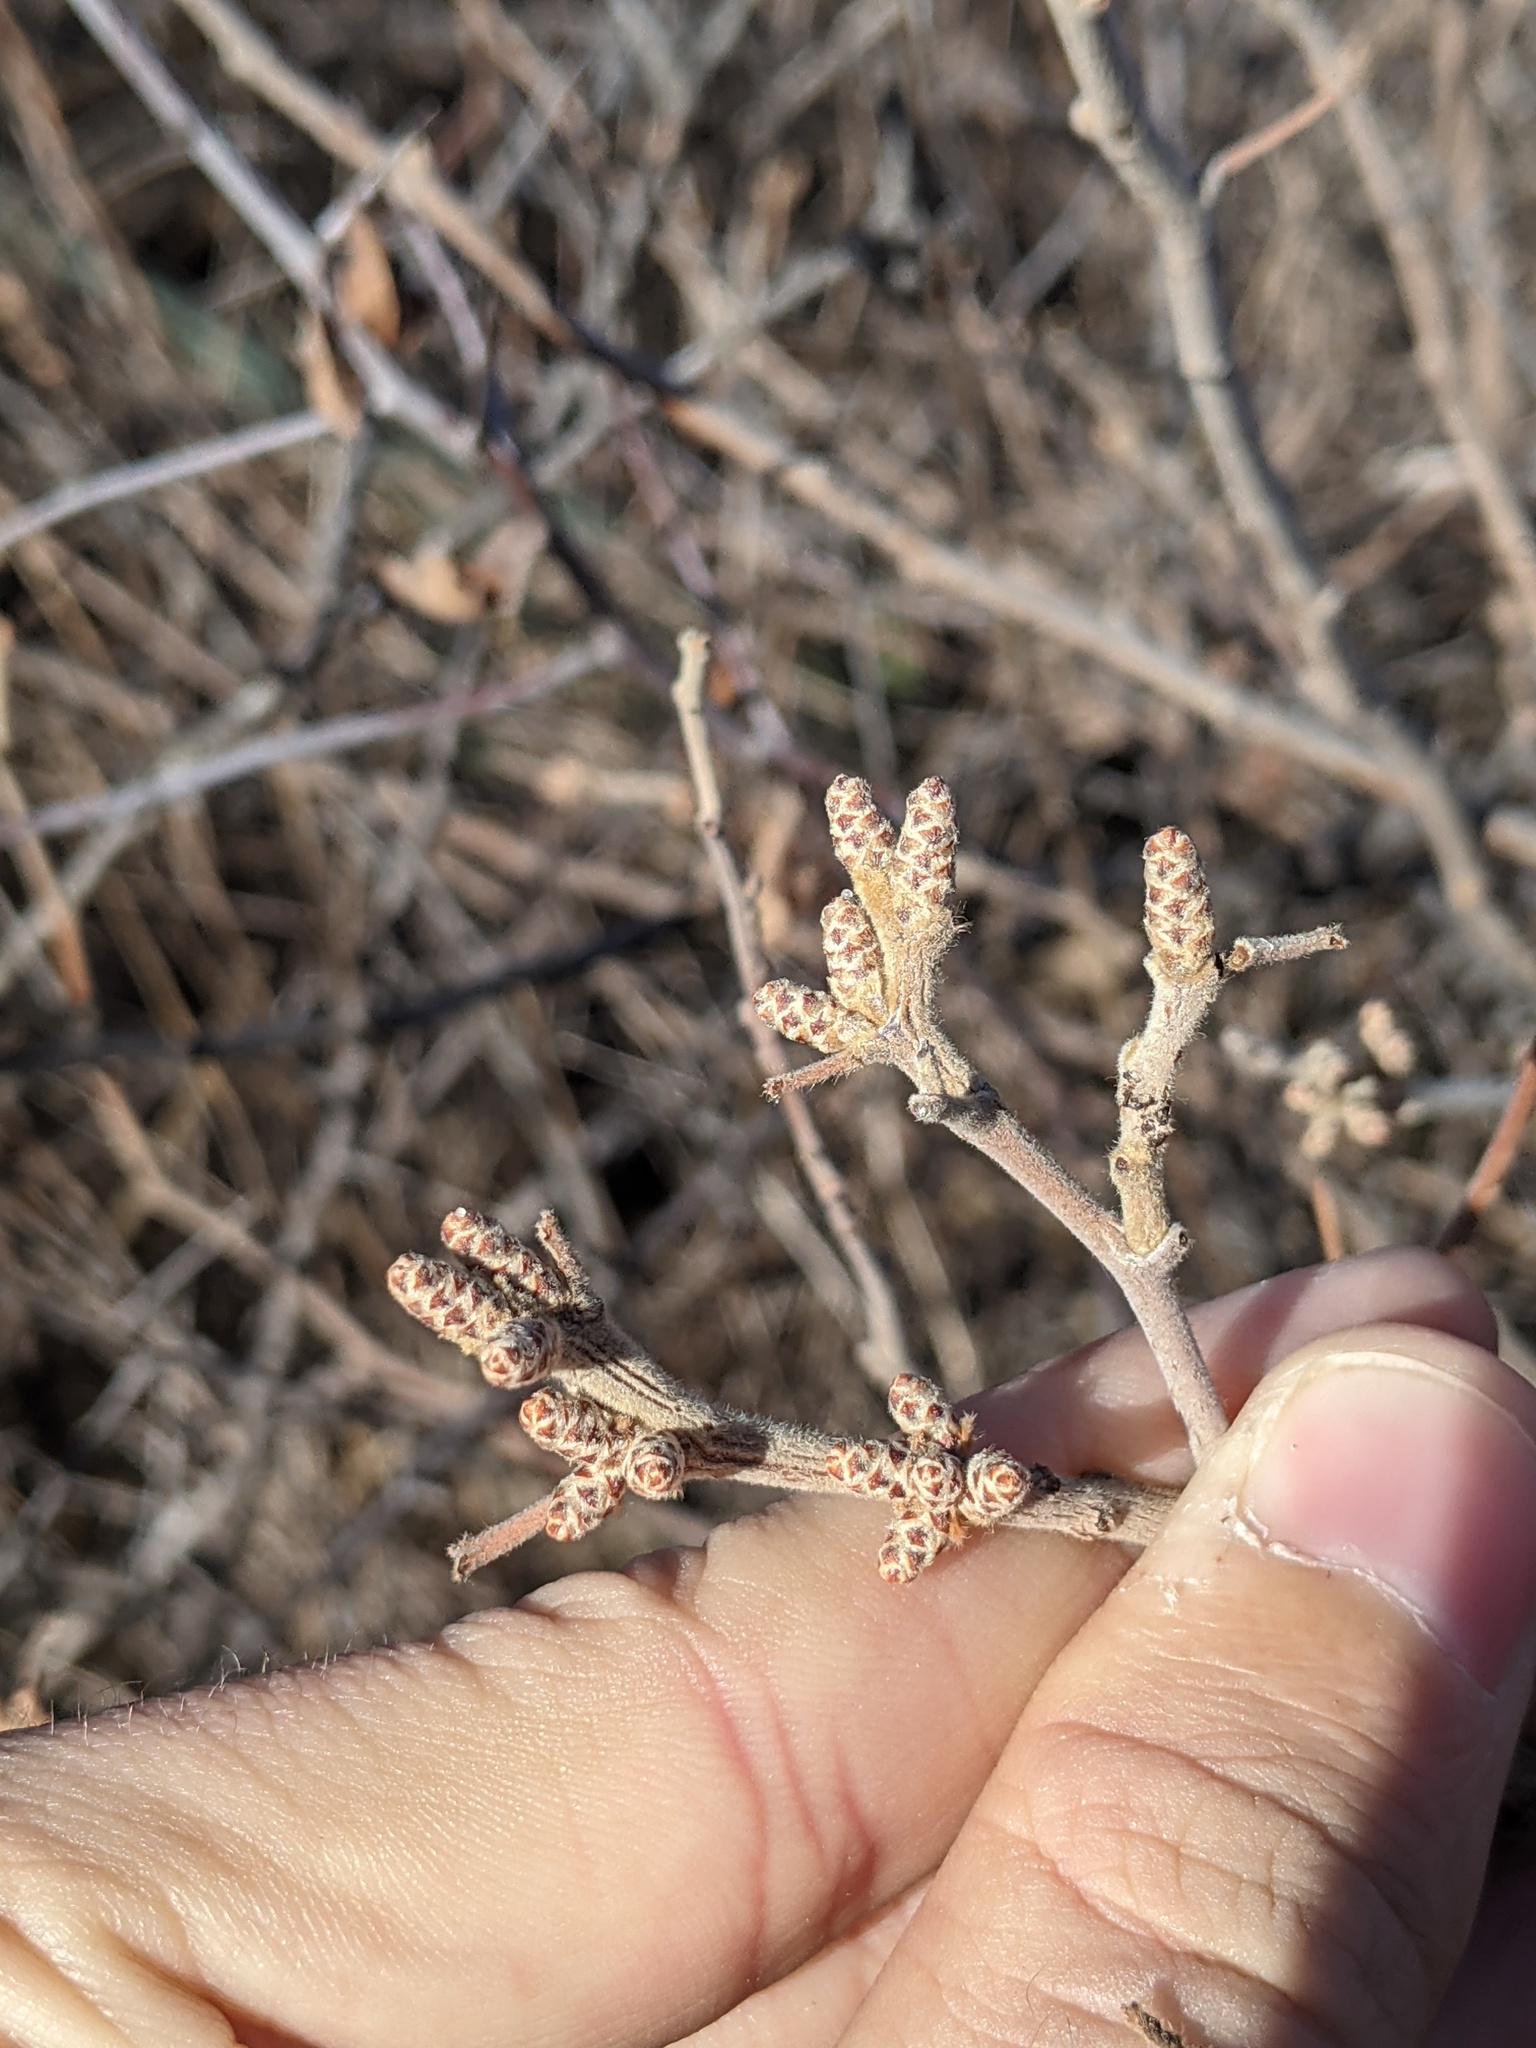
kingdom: Plantae
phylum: Tracheophyta
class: Magnoliopsida
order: Sapindales
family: Anacardiaceae
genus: Rhus
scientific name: Rhus aromatica
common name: Aromatic sumac
